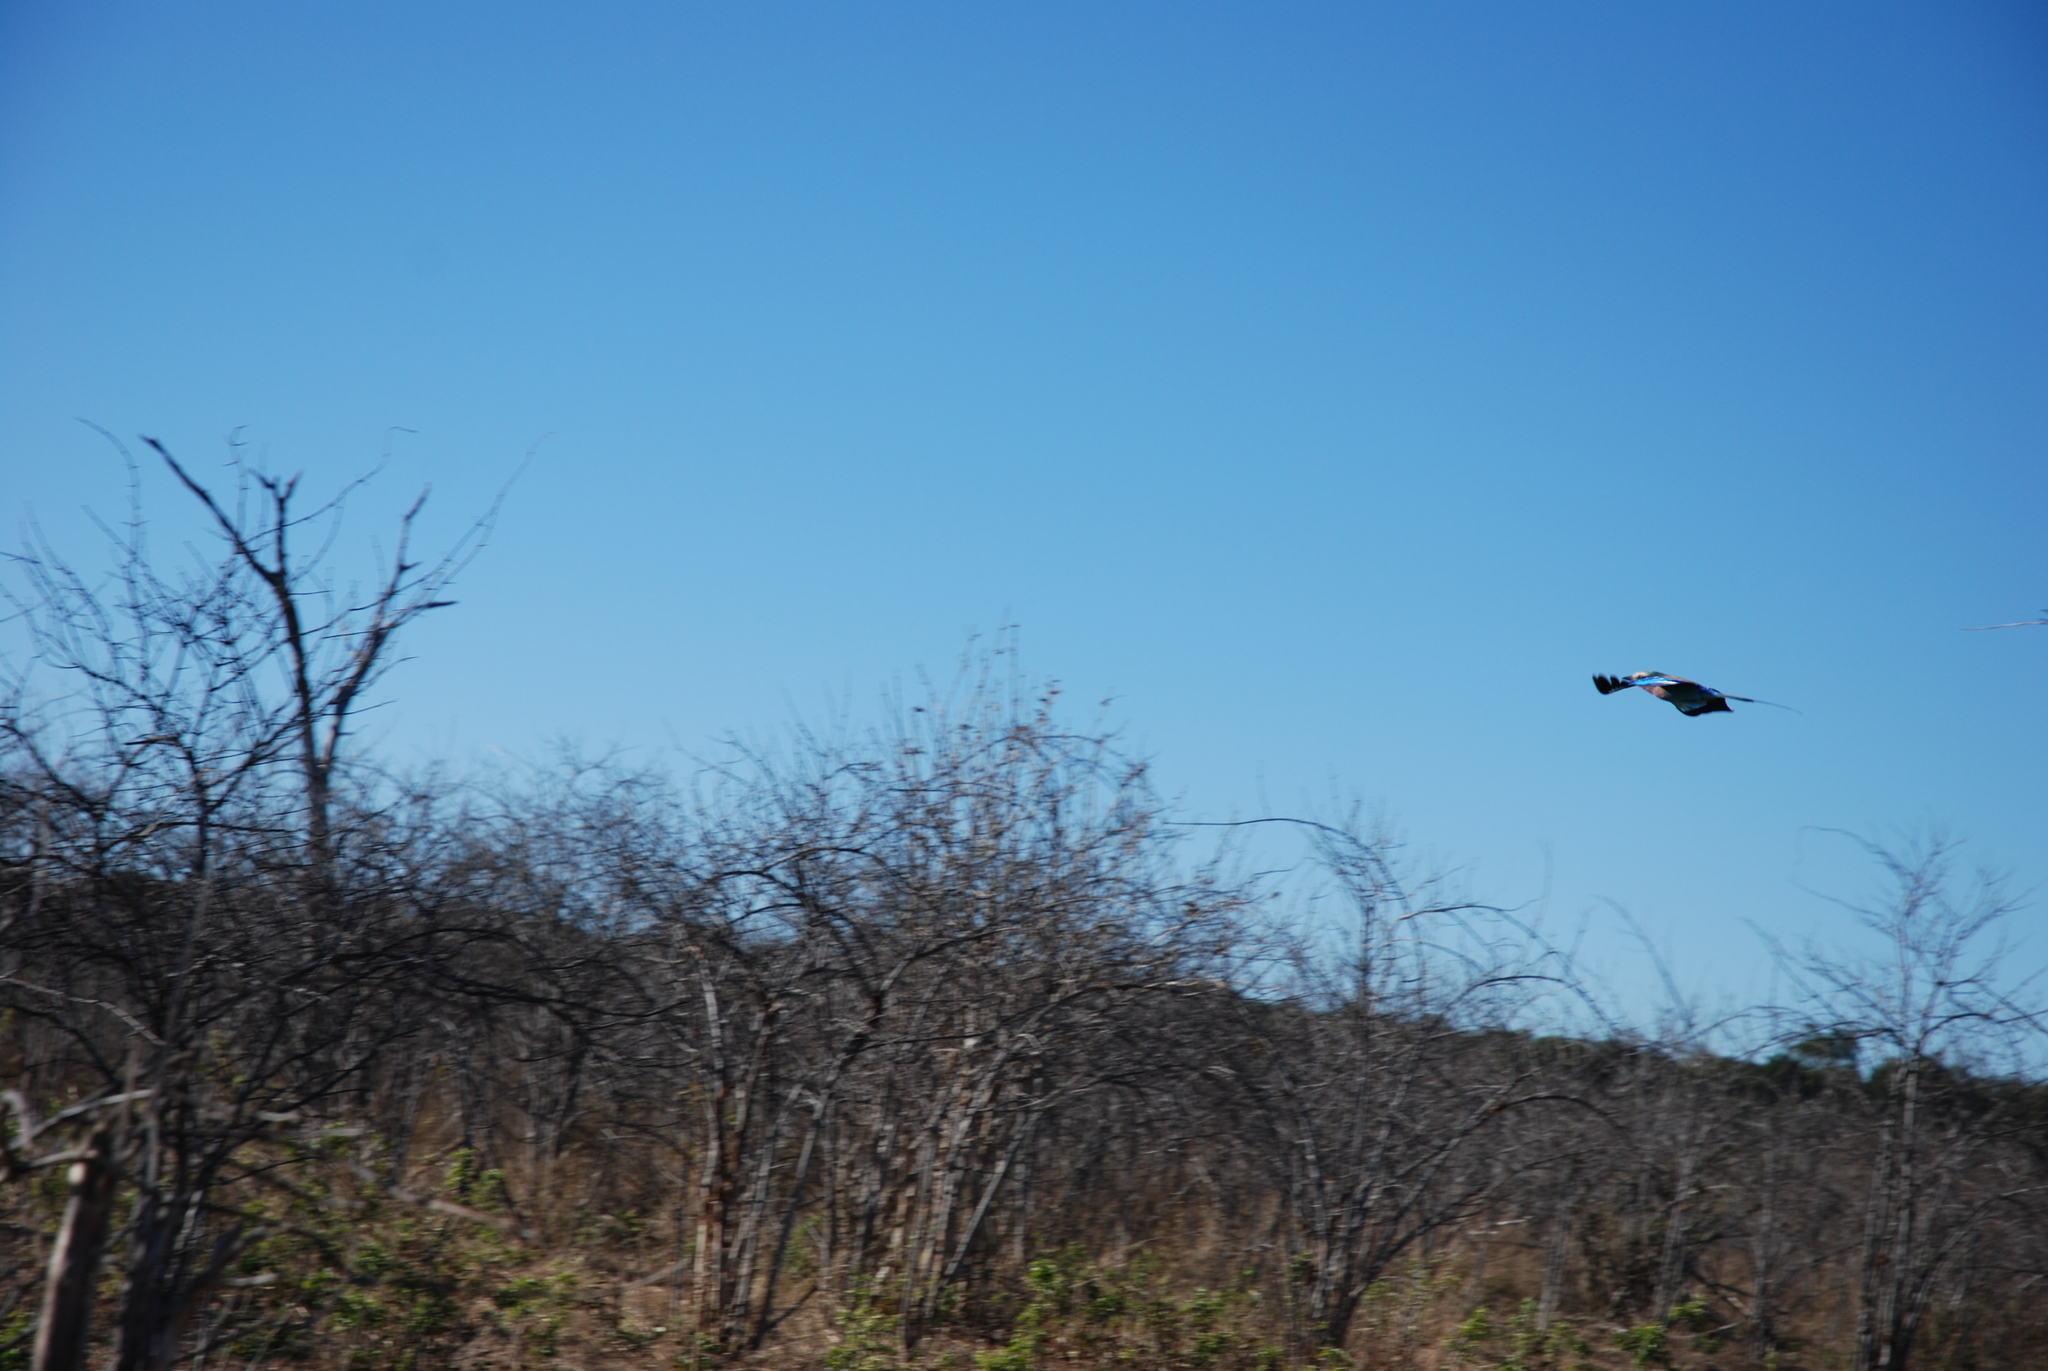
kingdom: Animalia
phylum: Chordata
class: Aves
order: Coraciiformes
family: Coraciidae
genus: Coracias
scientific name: Coracias caudatus
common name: Lilac-breasted roller
